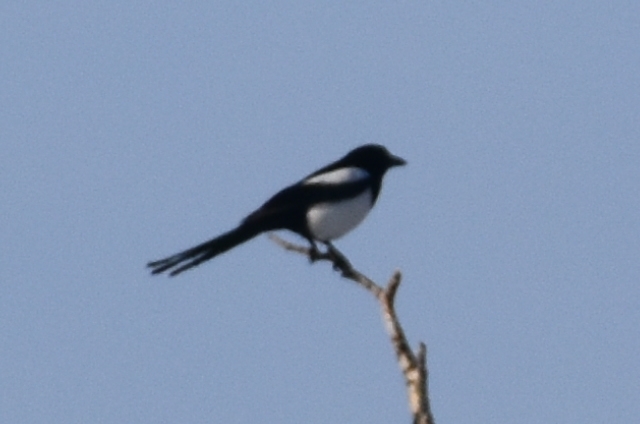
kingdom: Animalia
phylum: Chordata
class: Aves
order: Passeriformes
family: Corvidae
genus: Pica
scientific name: Pica pica
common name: Eurasian magpie
